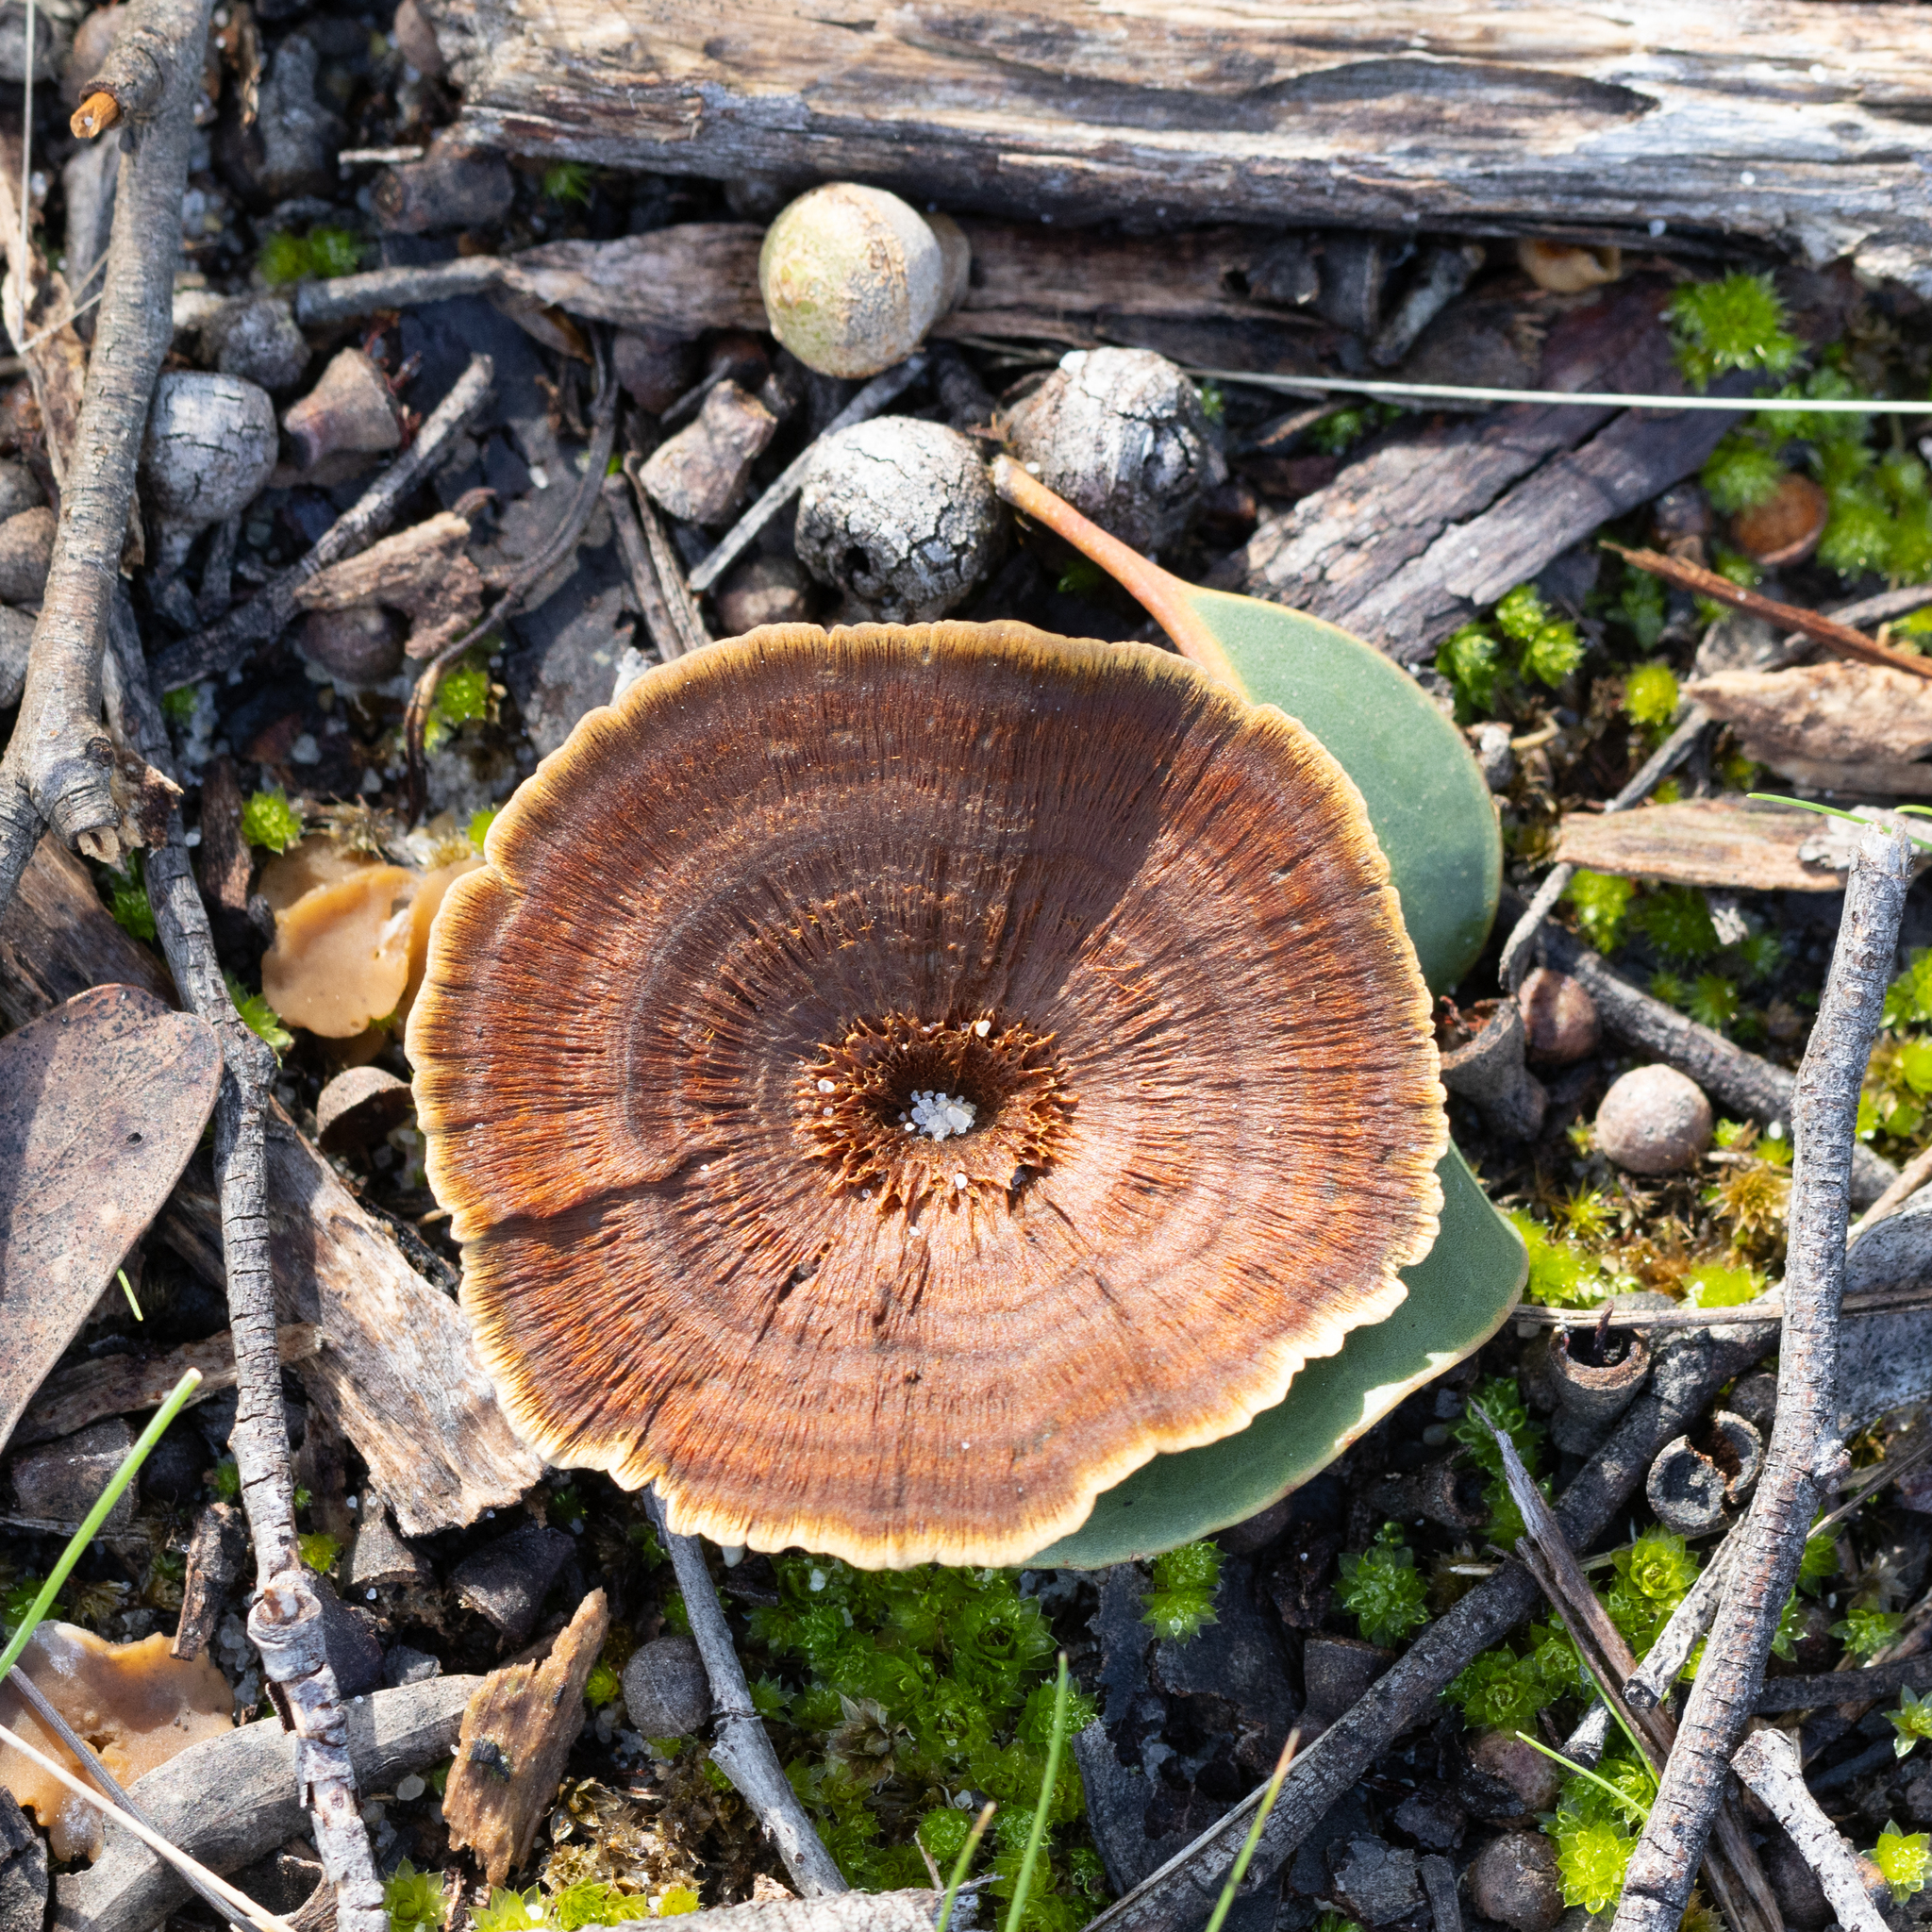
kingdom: Fungi
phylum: Basidiomycota
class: Agaricomycetes
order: Hymenochaetales
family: Hymenochaetaceae
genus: Coltricia
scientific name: Coltricia australica
